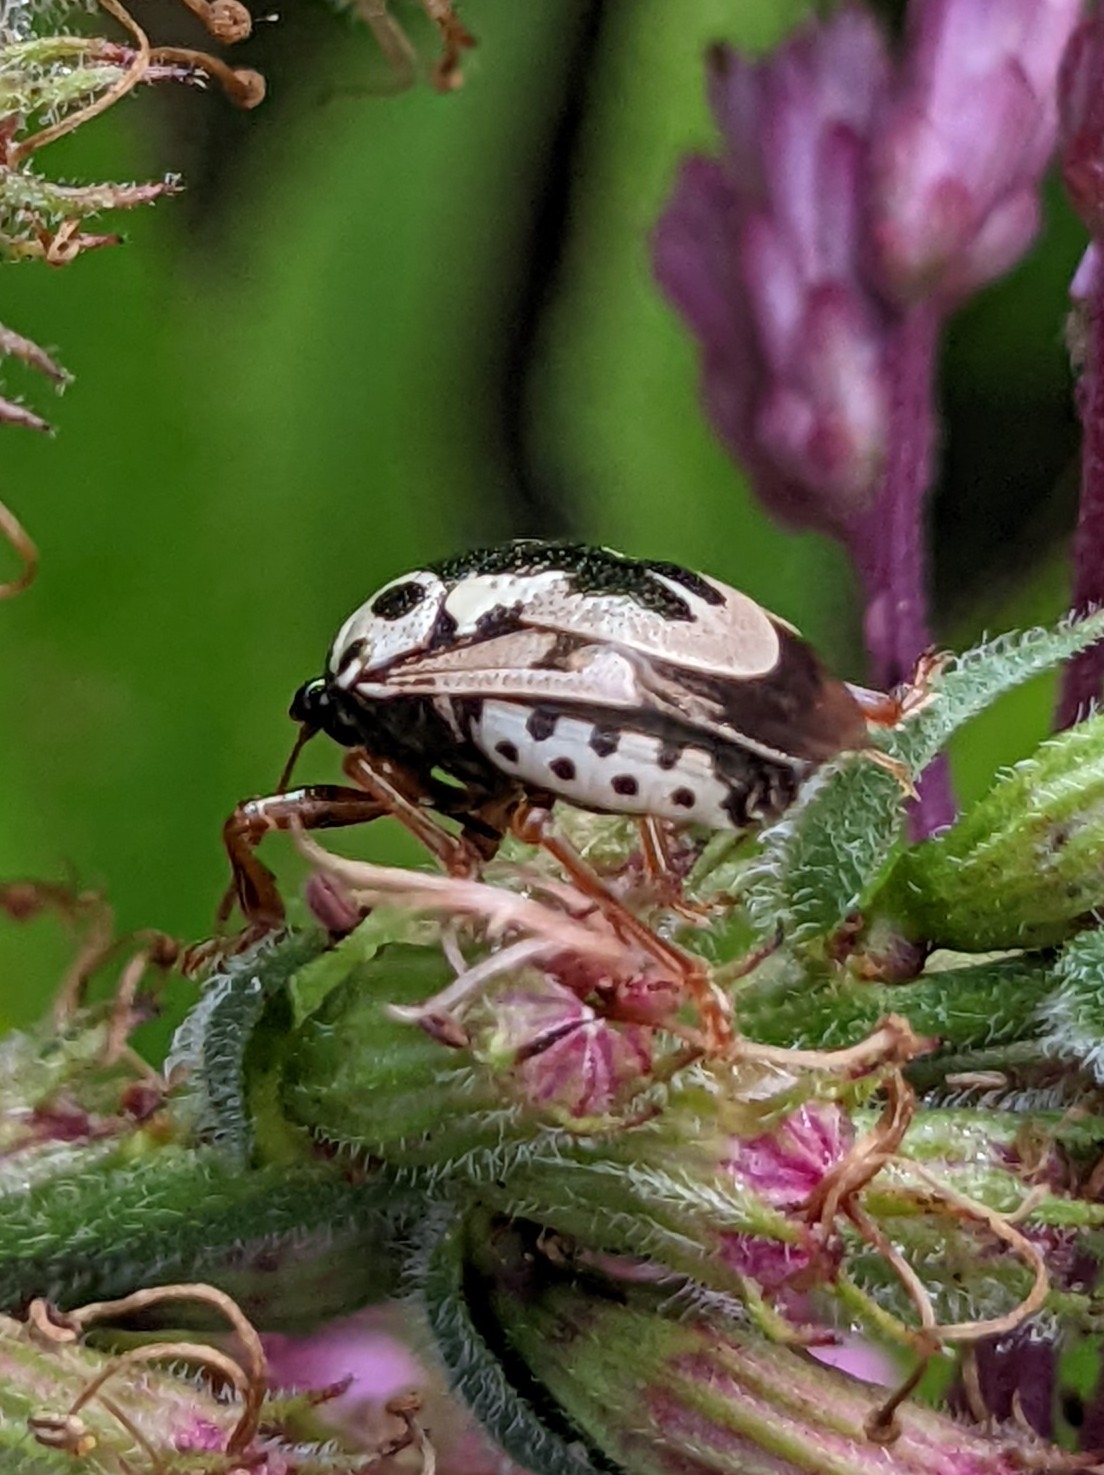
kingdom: Animalia
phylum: Arthropoda
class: Insecta
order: Hemiptera
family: Pentatomidae
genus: Stiretrus
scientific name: Stiretrus anchorago
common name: Anchor stink bug
